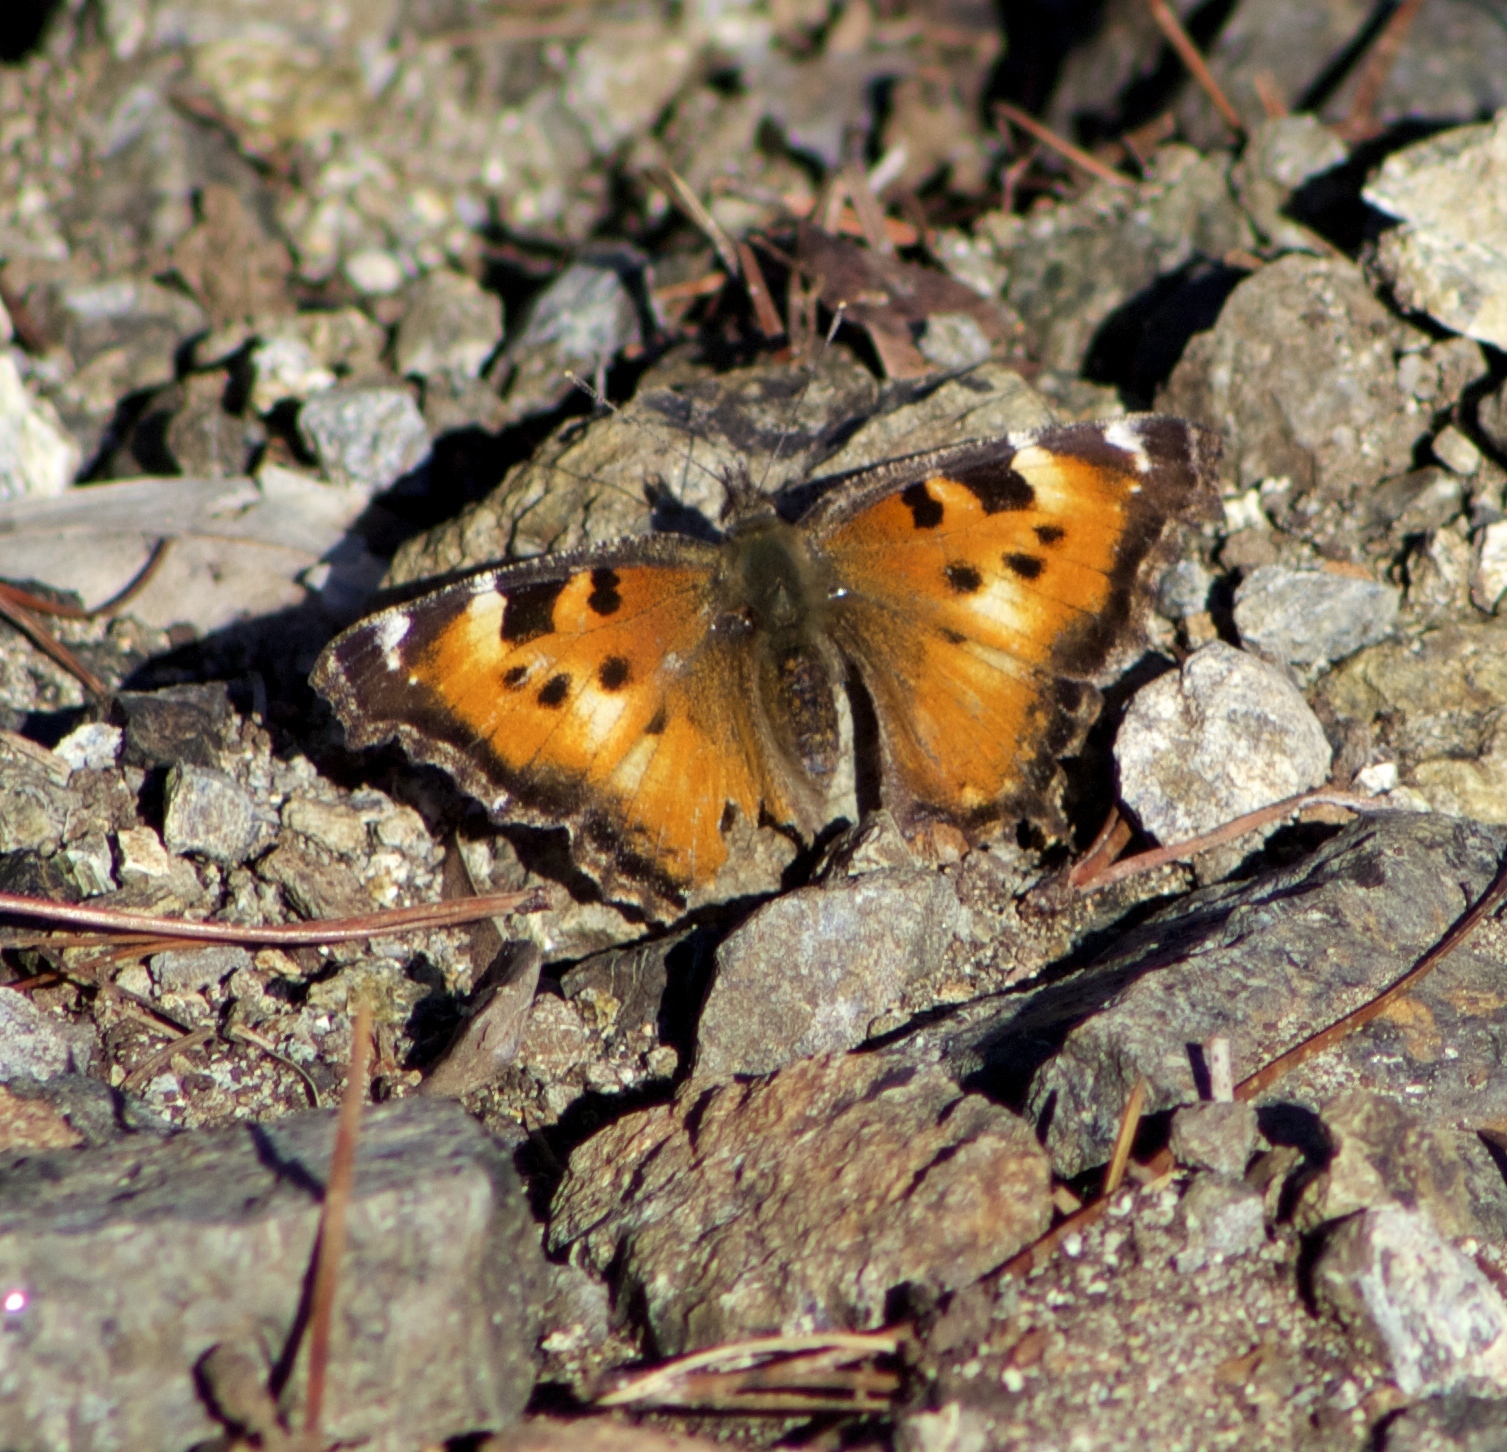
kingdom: Animalia
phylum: Arthropoda
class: Insecta
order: Lepidoptera
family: Nymphalidae
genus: Nymphalis
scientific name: Nymphalis californica
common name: California tortoiseshell
